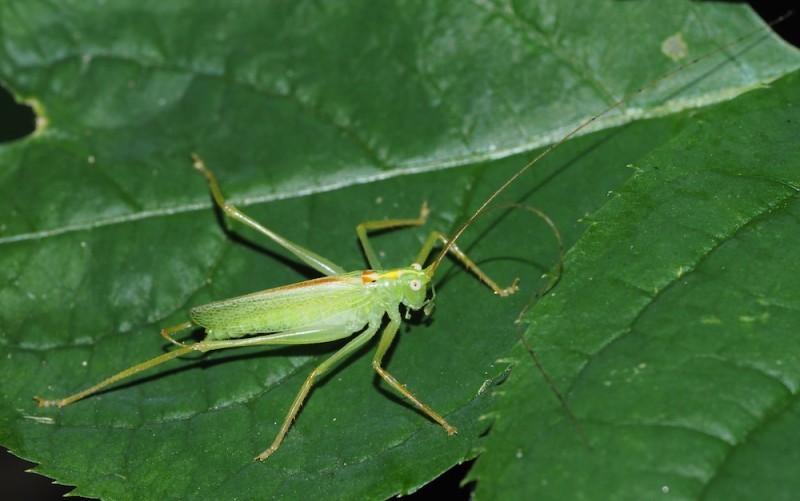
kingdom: Animalia
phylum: Arthropoda
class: Insecta
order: Orthoptera
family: Tettigoniidae
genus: Meconema
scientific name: Meconema thalassinum
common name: Oak bush-cricket
